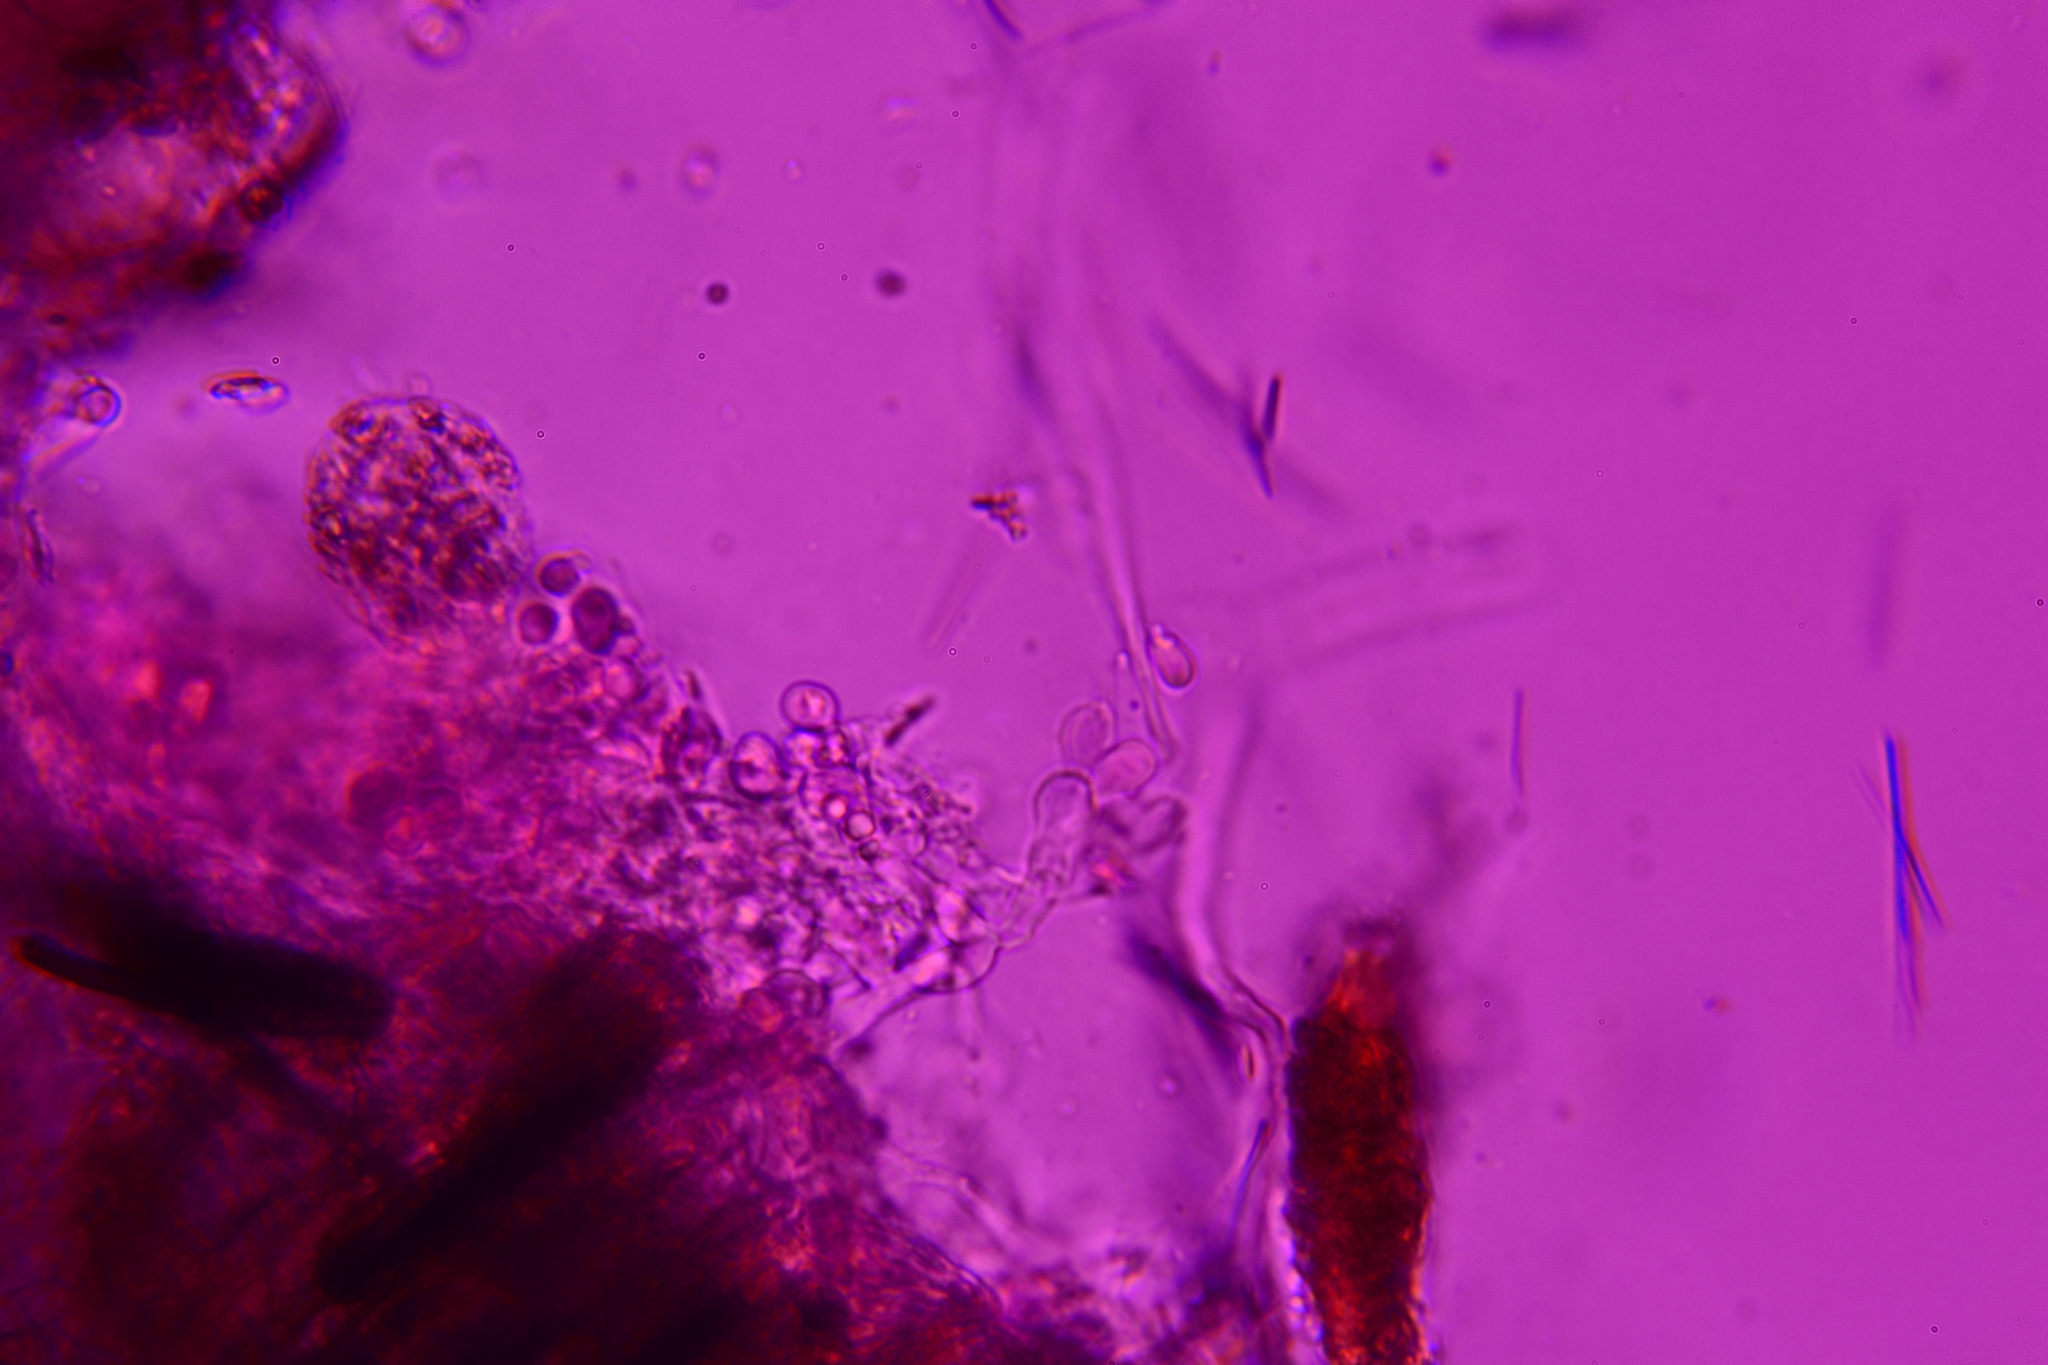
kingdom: Fungi
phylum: Basidiomycota
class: Agaricomycetes
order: Cantharellales
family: Tulasnellaceae
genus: Tulasnella
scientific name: Tulasnella violea
